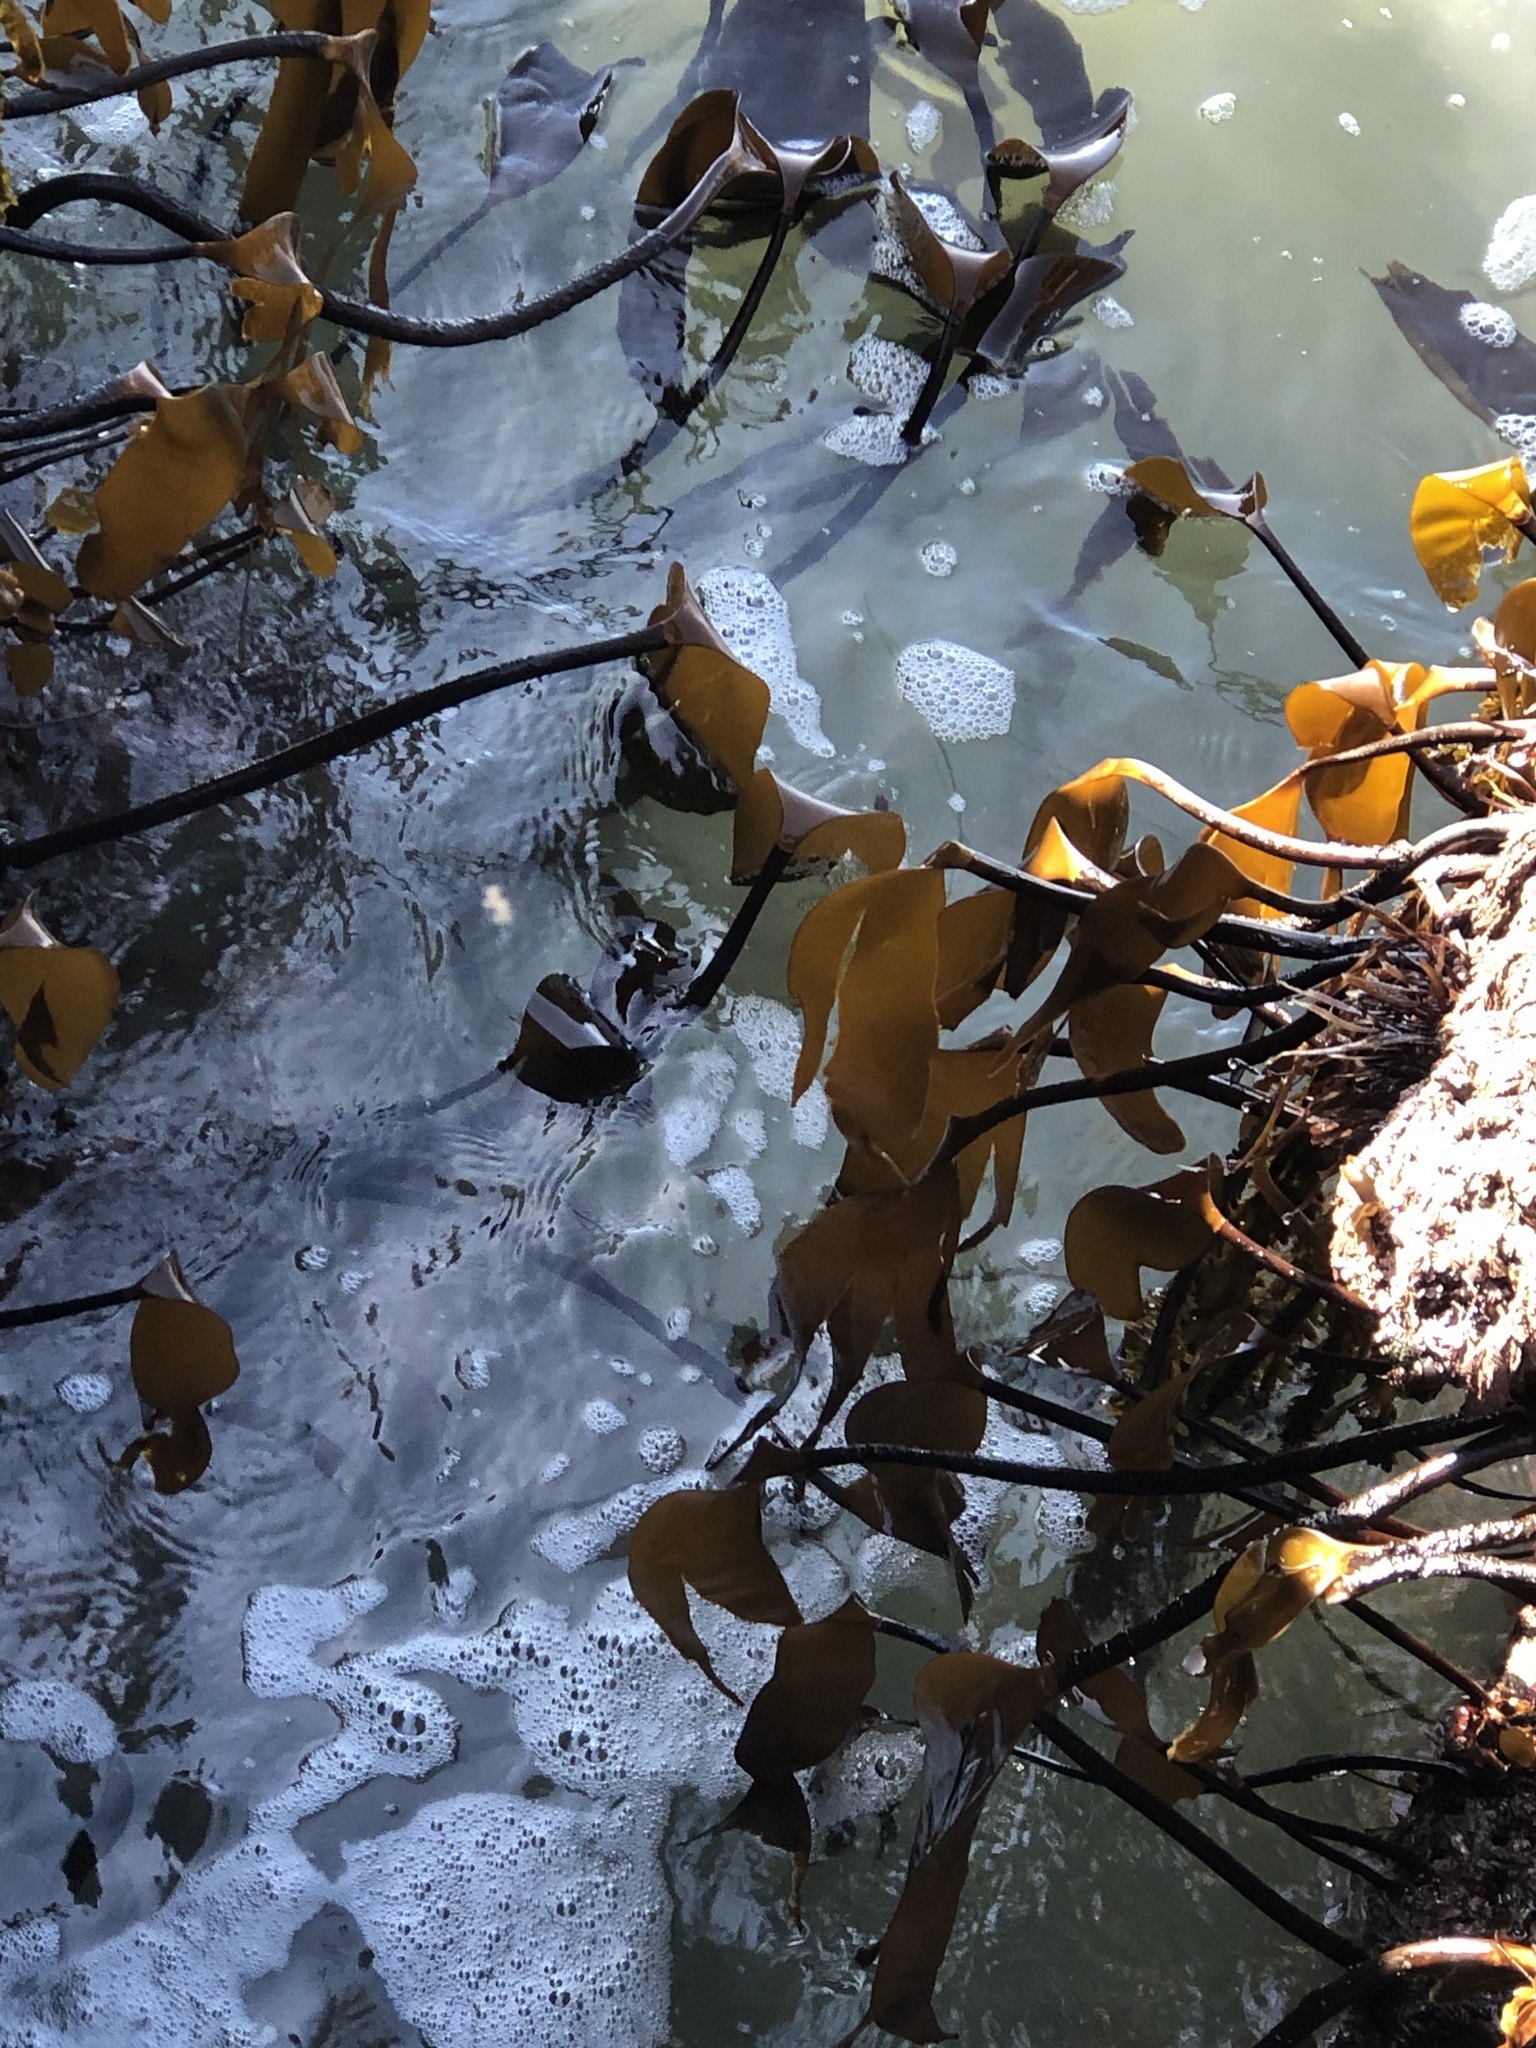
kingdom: Chromista
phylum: Ochrophyta
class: Phaeophyceae
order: Laminariales
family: Laminariaceae
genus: Laminaria
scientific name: Laminaria setchellii
